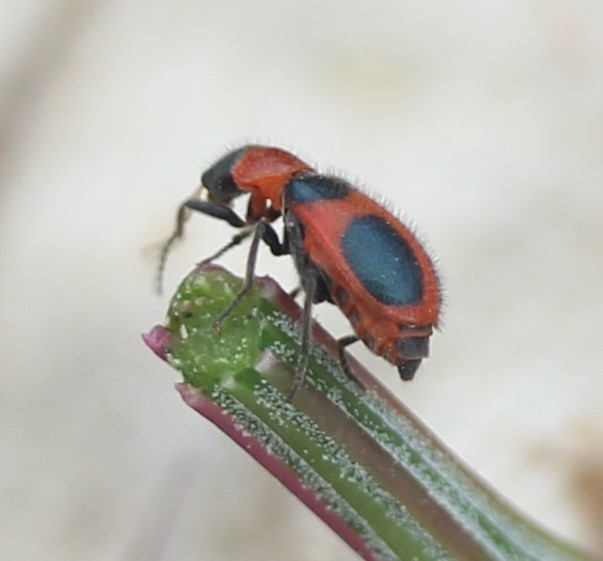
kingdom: Animalia
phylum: Arthropoda
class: Insecta
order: Coleoptera
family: Melyridae
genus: Collops
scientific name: Collops quadrimaculatus
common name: Four-spotted collops
